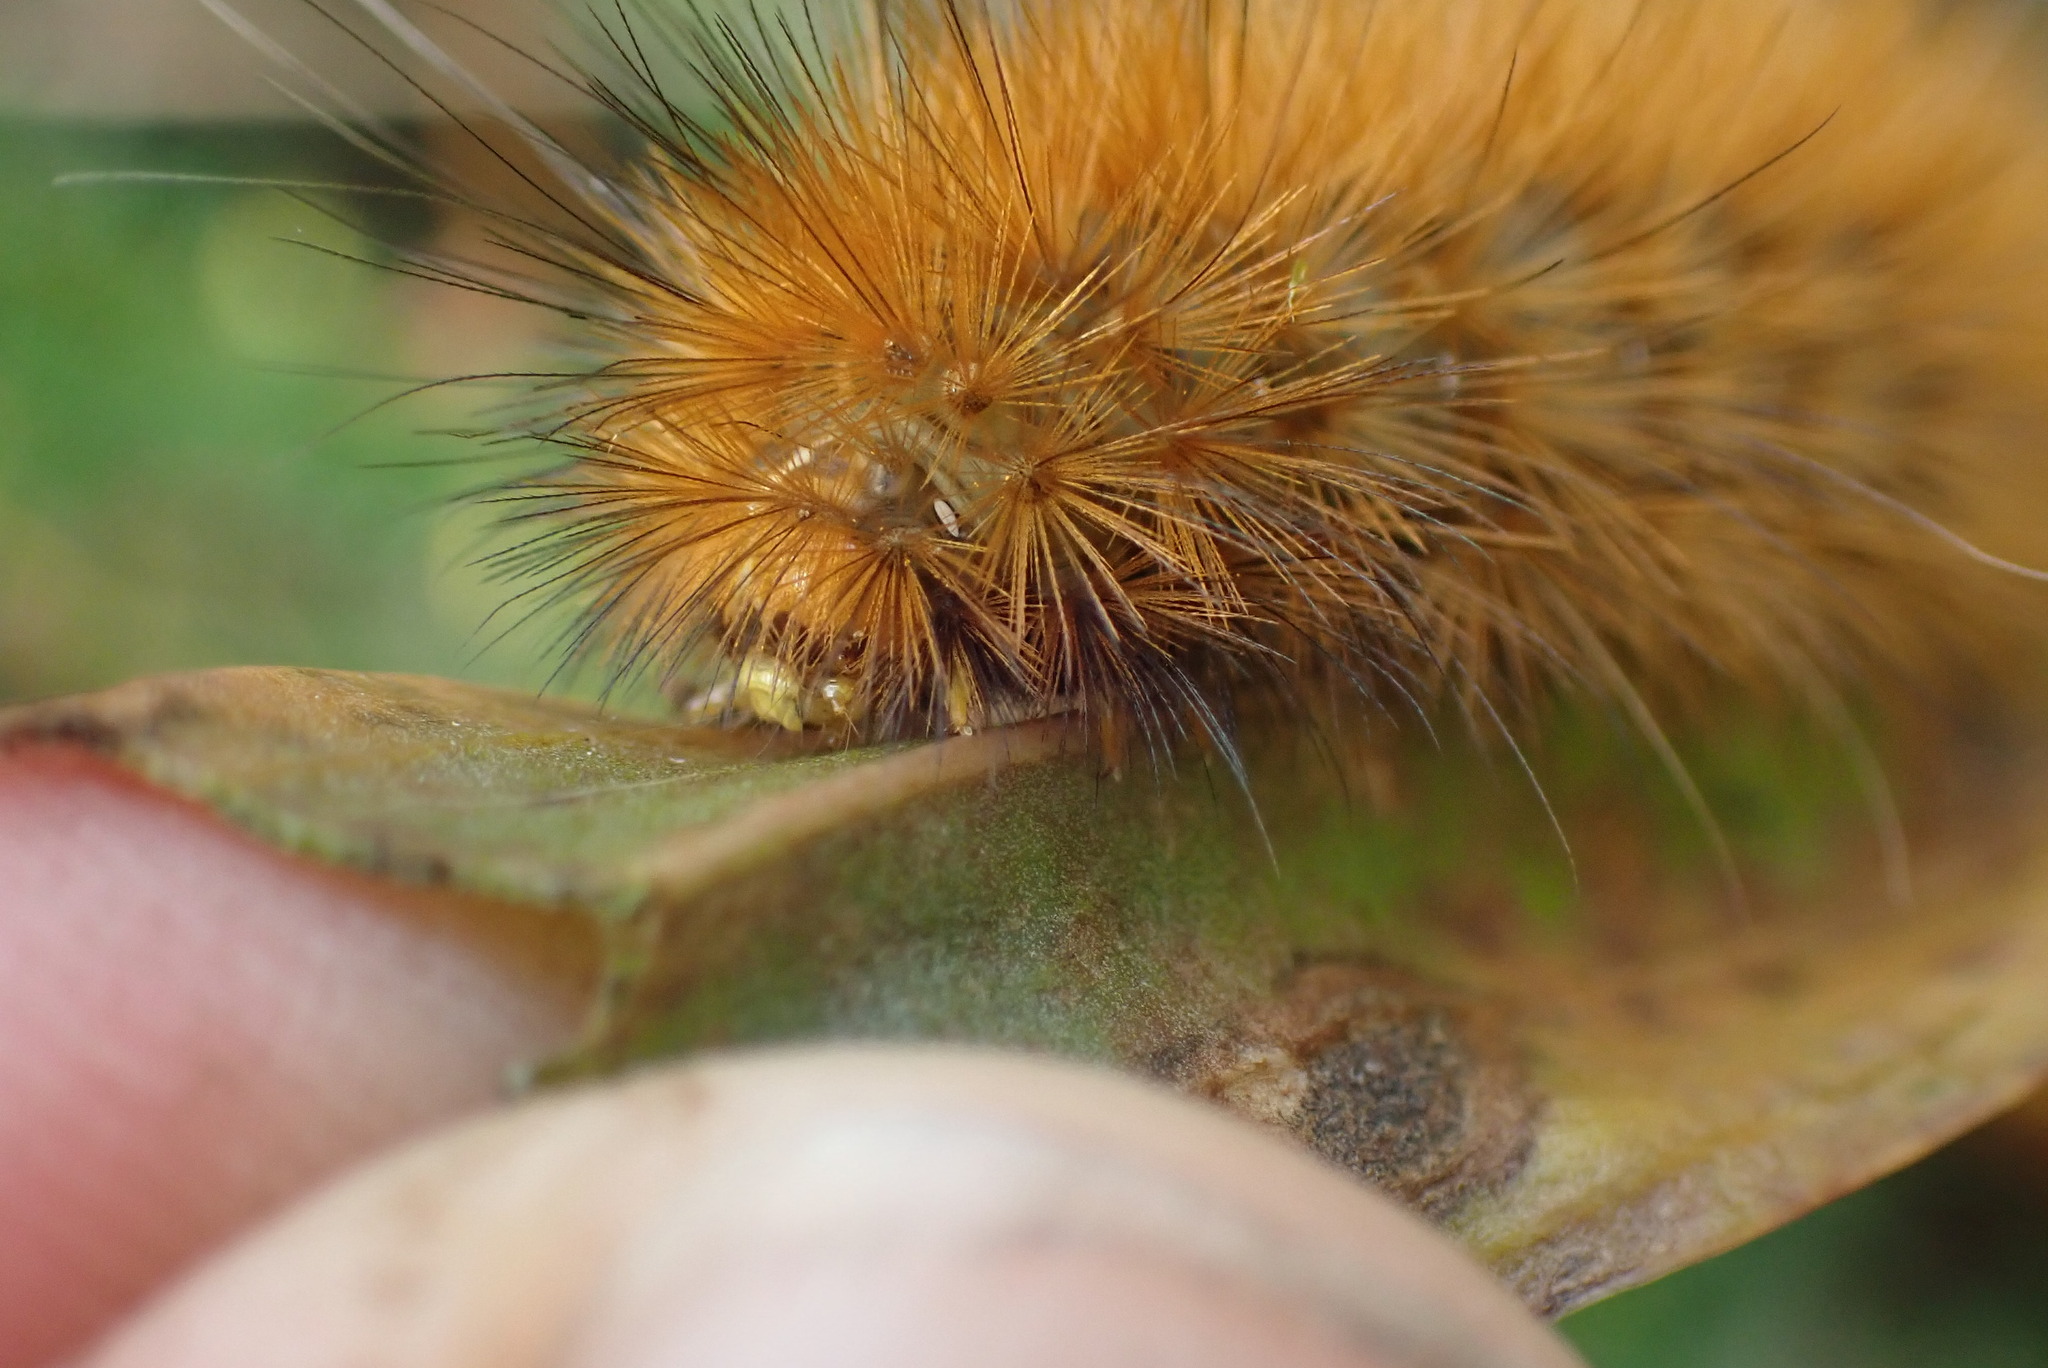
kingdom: Animalia
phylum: Arthropoda
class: Insecta
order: Lepidoptera
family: Erebidae
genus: Spilosoma
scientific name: Spilosoma virginica
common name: Virginia tiger moth
